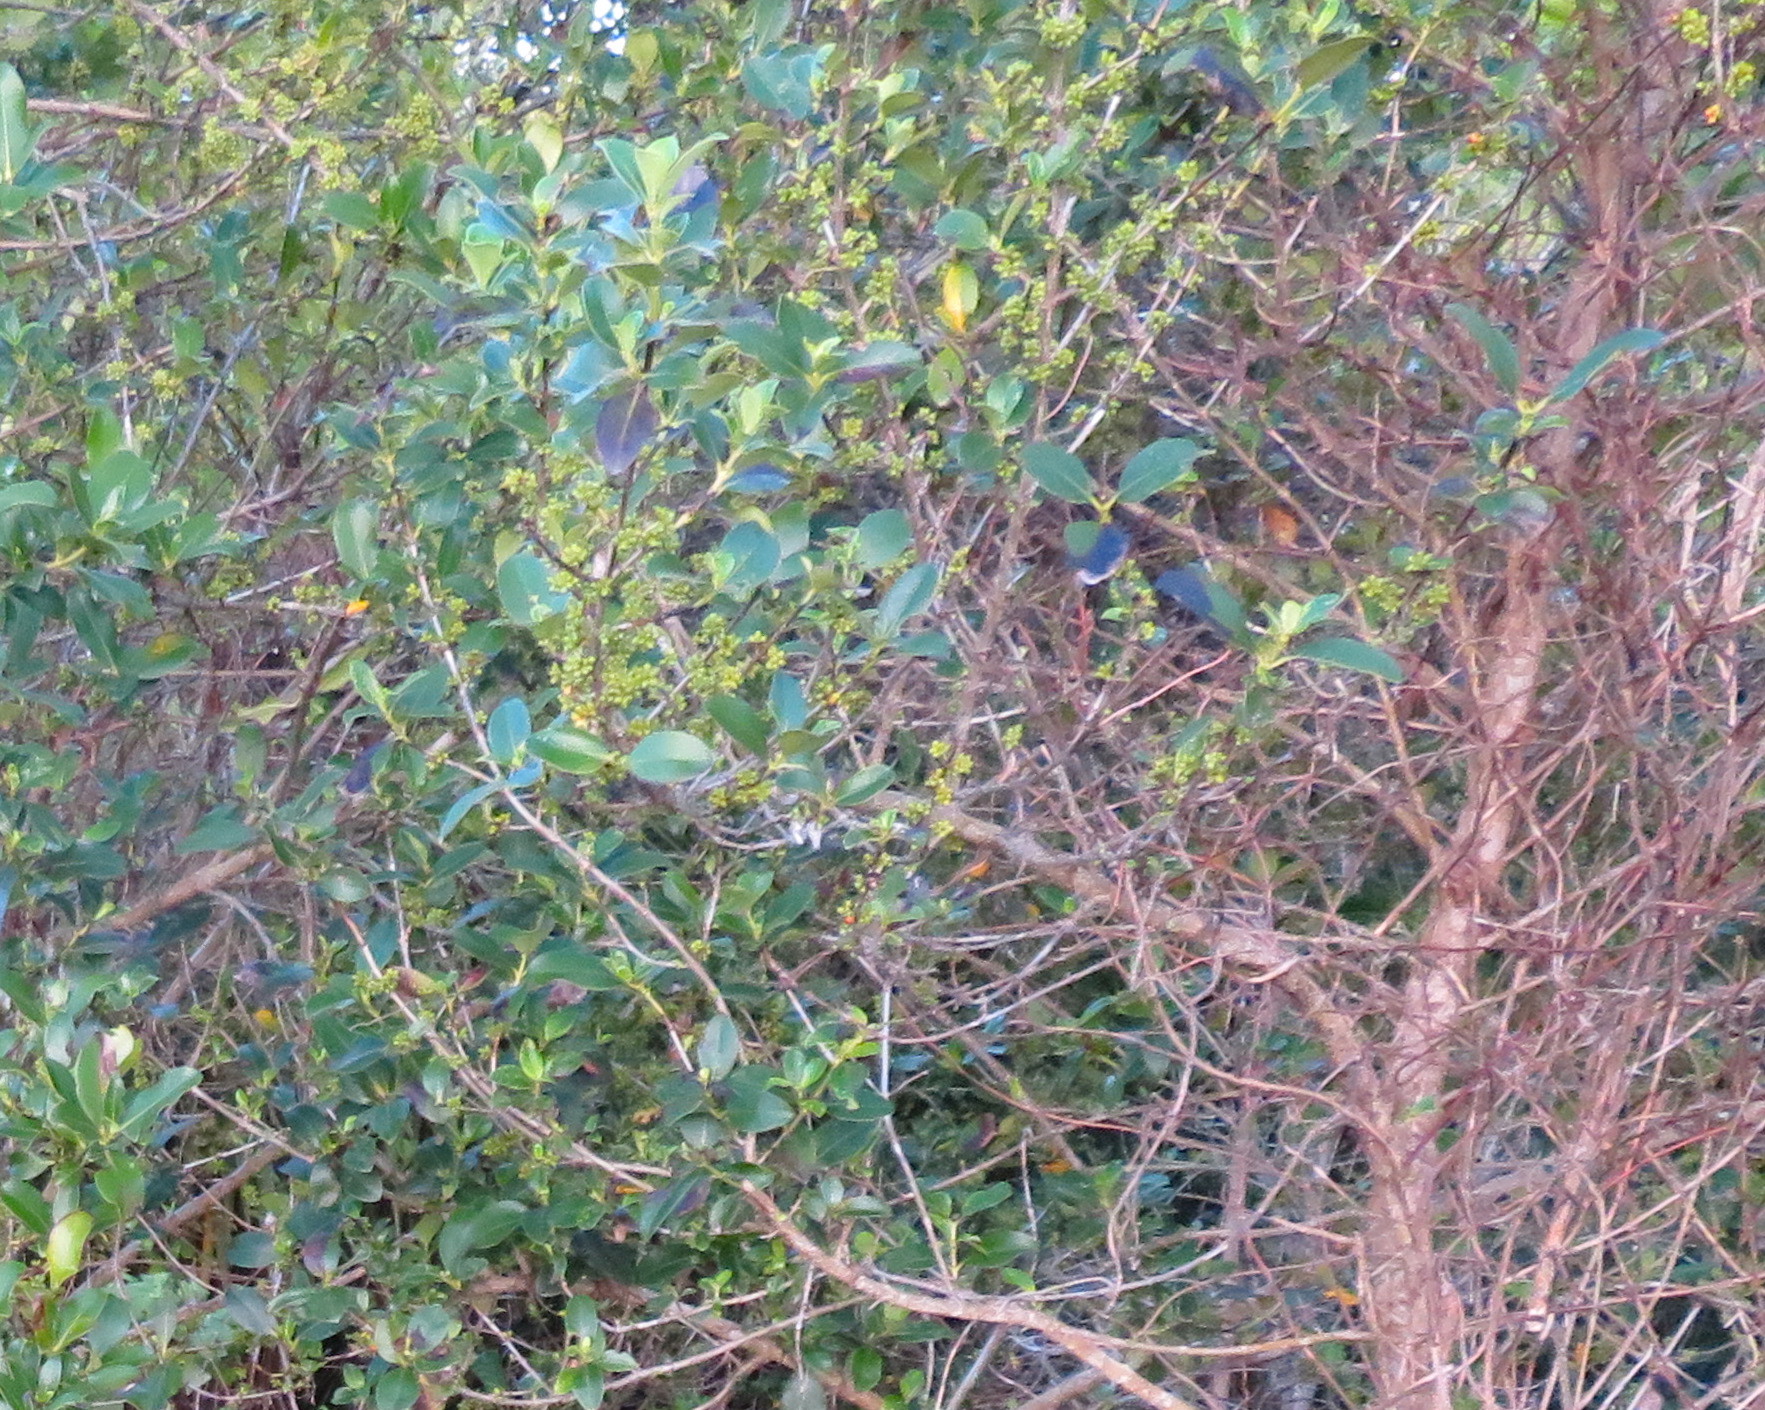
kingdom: Plantae
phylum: Tracheophyta
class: Magnoliopsida
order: Gentianales
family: Rubiaceae
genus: Coprosma
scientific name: Coprosma robusta
